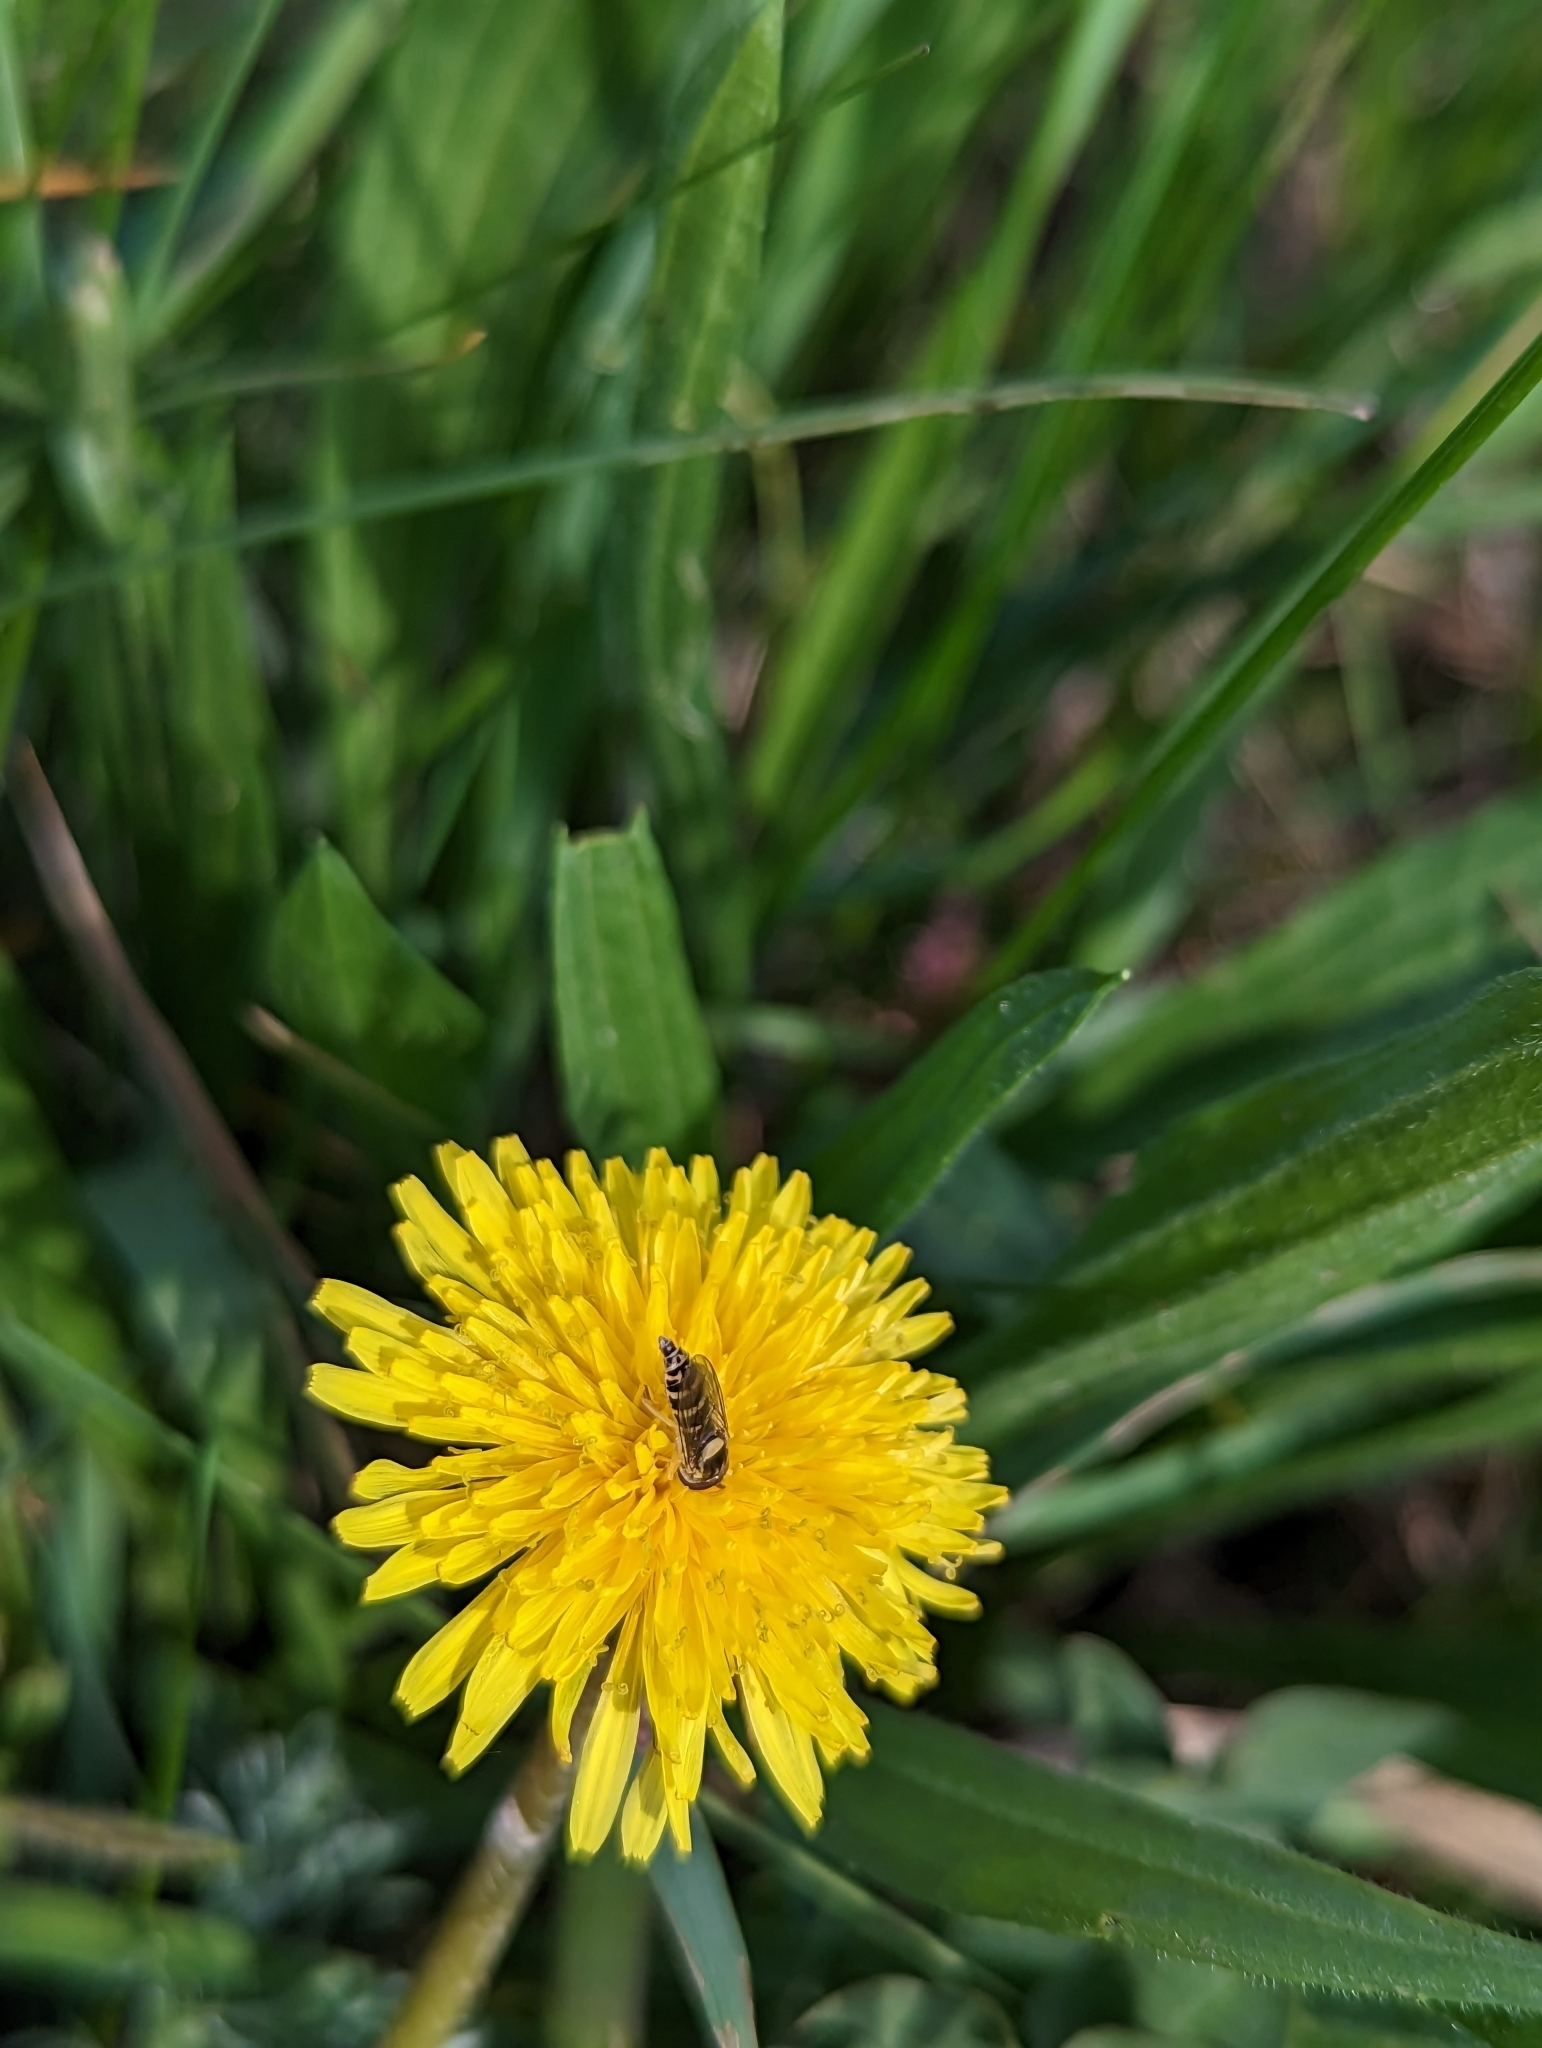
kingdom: Animalia
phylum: Arthropoda
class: Insecta
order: Diptera
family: Syrphidae
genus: Sphaerophoria
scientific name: Sphaerophoria
